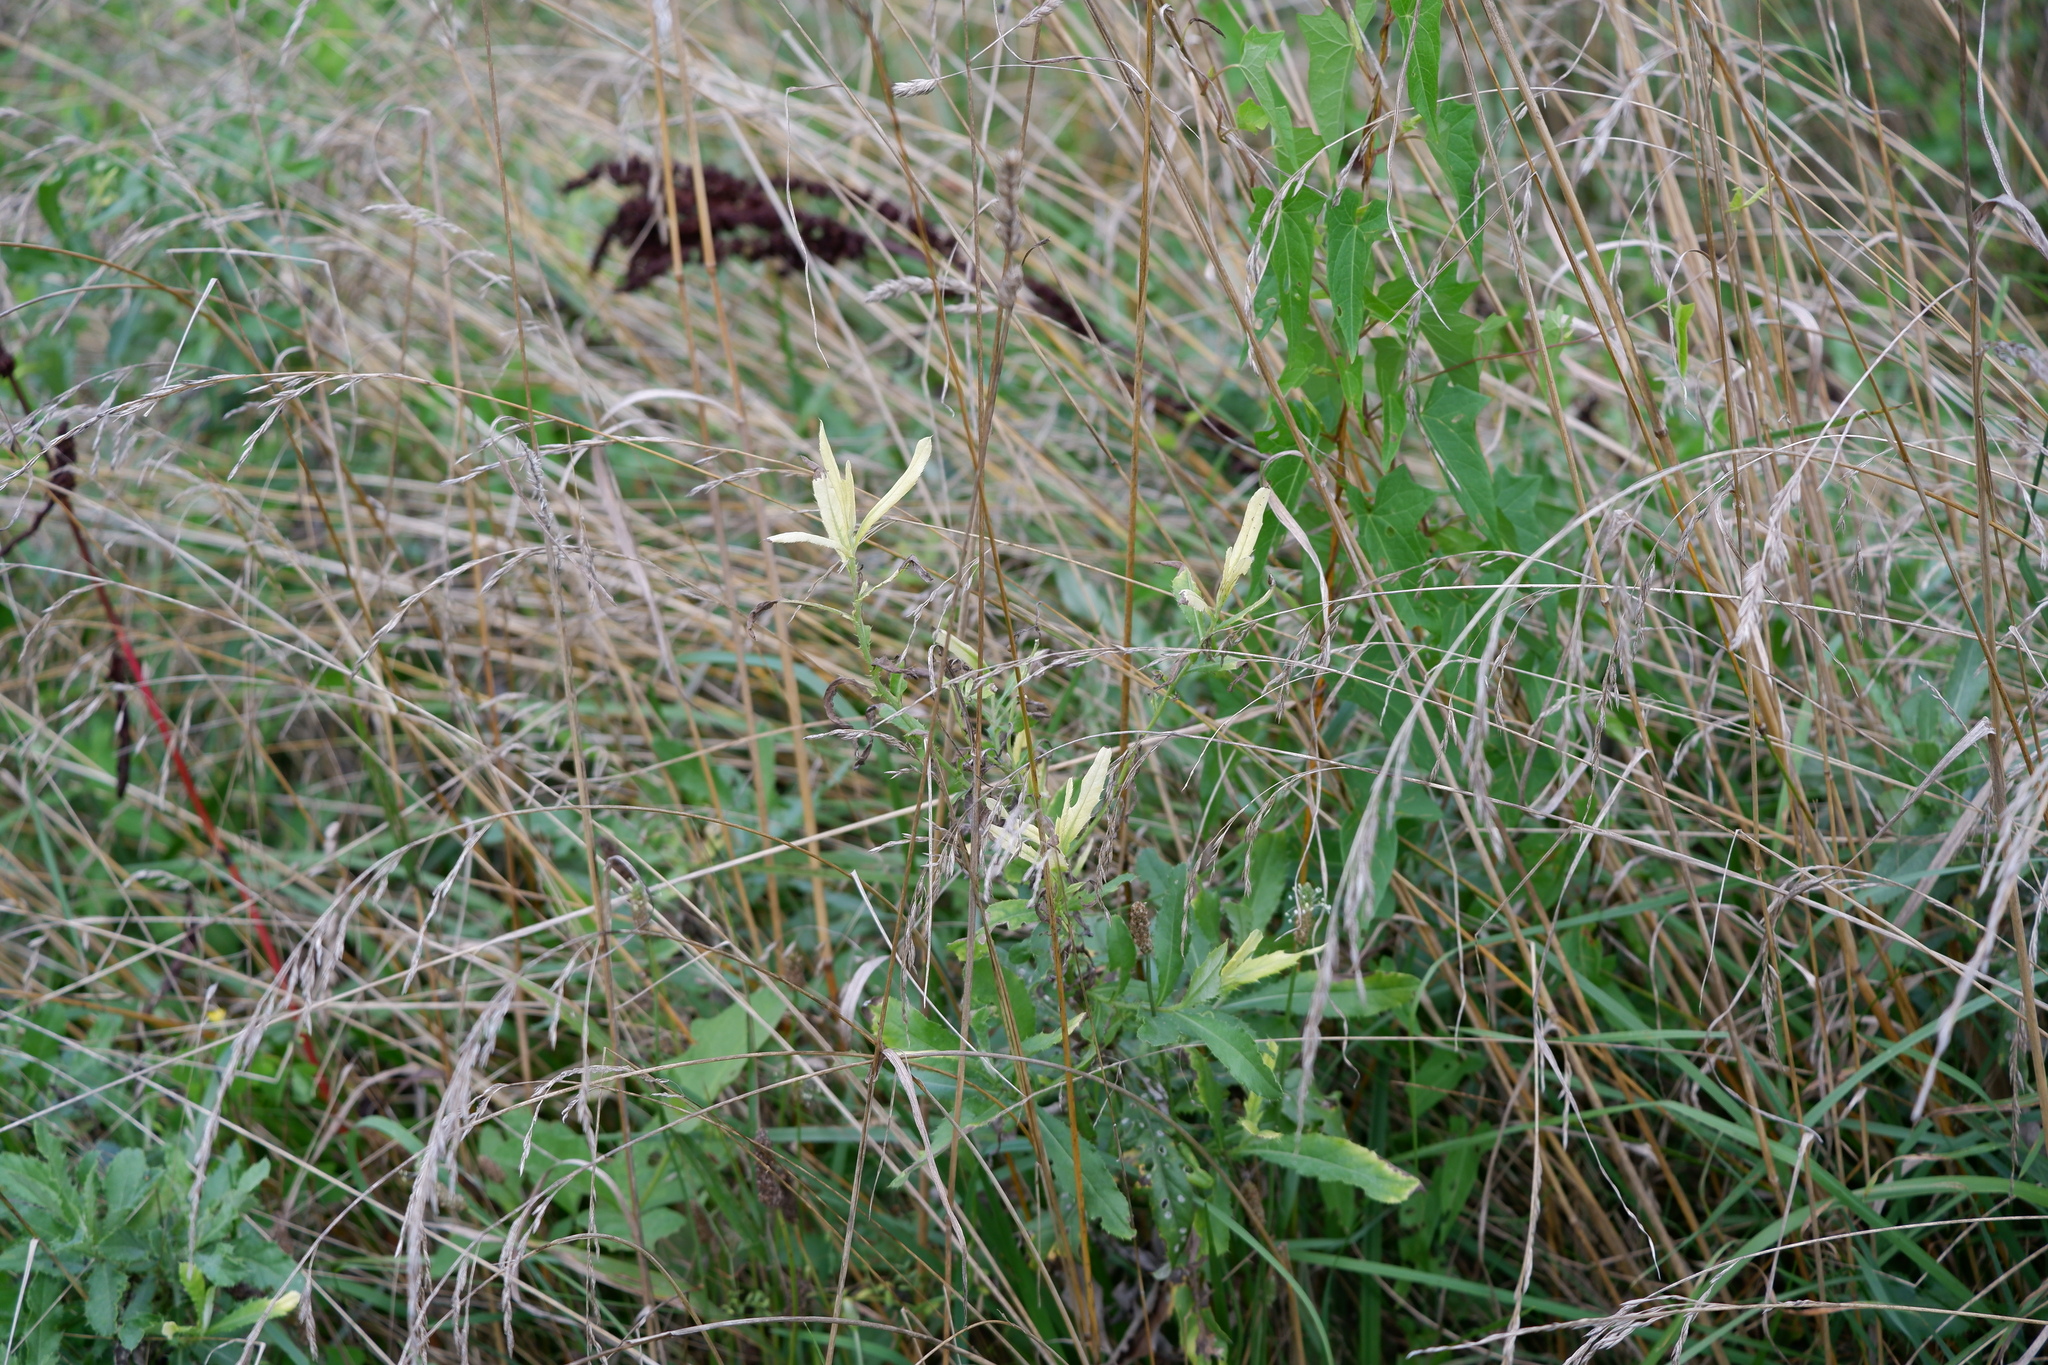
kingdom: Bacteria
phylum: Proteobacteria
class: Gammaproteobacteria
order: Pseudomonadales
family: Pseudomonadaceae
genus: Pseudomonas
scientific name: Pseudomonas syringae
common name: Bacterial speck
